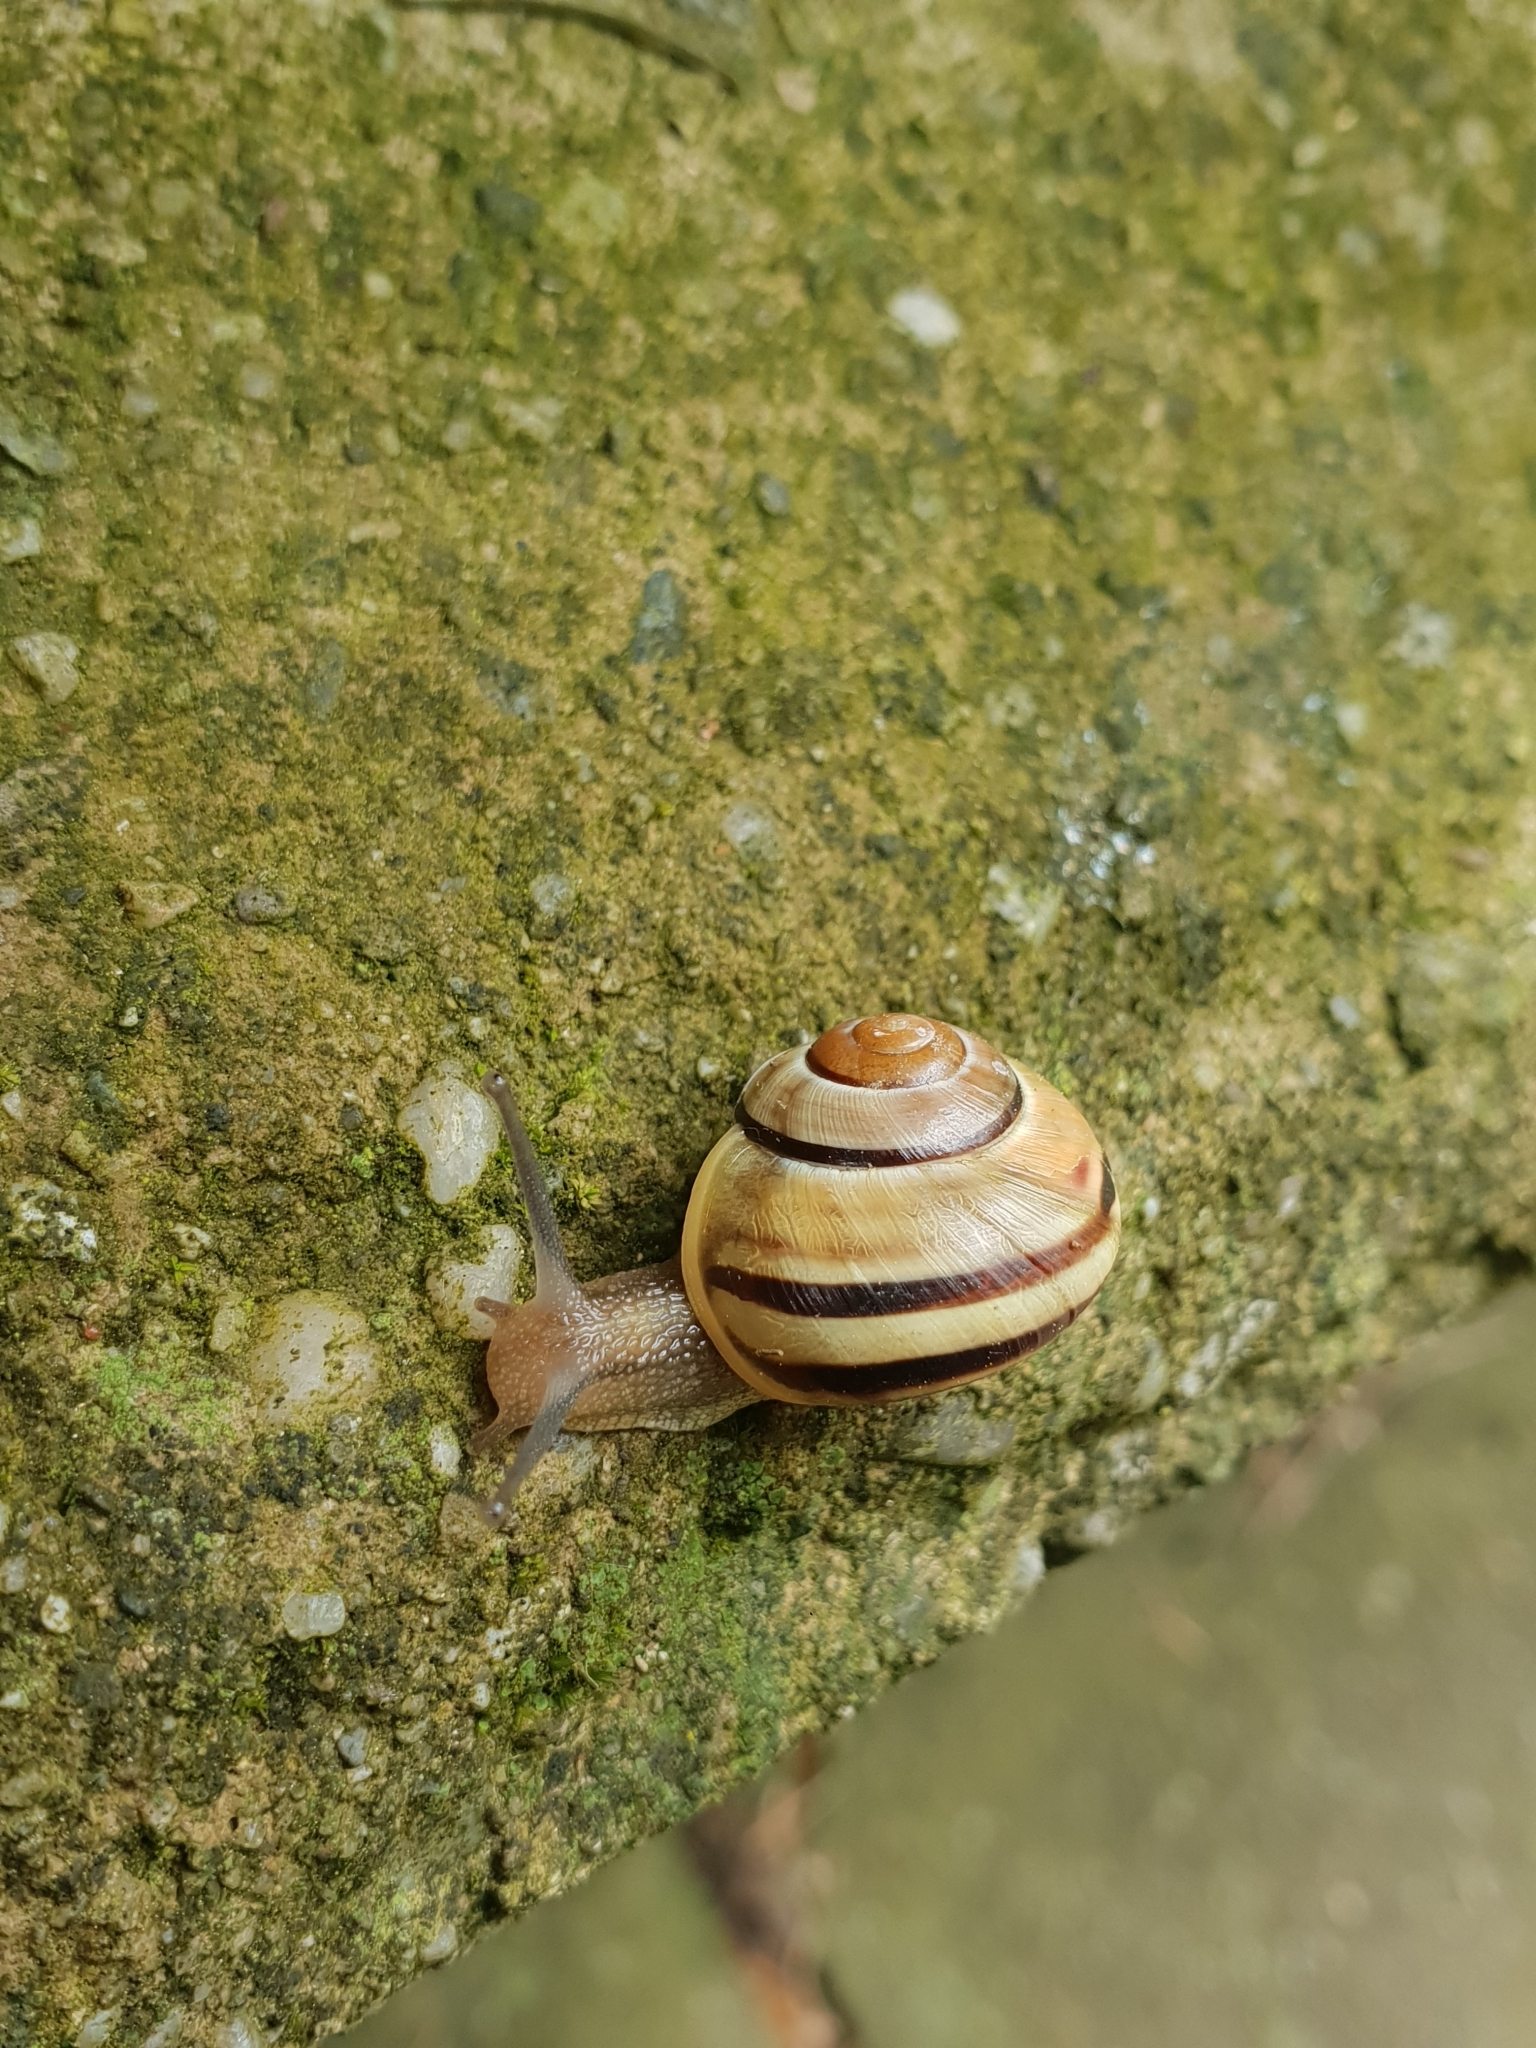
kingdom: Animalia
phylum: Mollusca
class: Gastropoda
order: Stylommatophora
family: Helicidae
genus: Cepaea
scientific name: Cepaea
